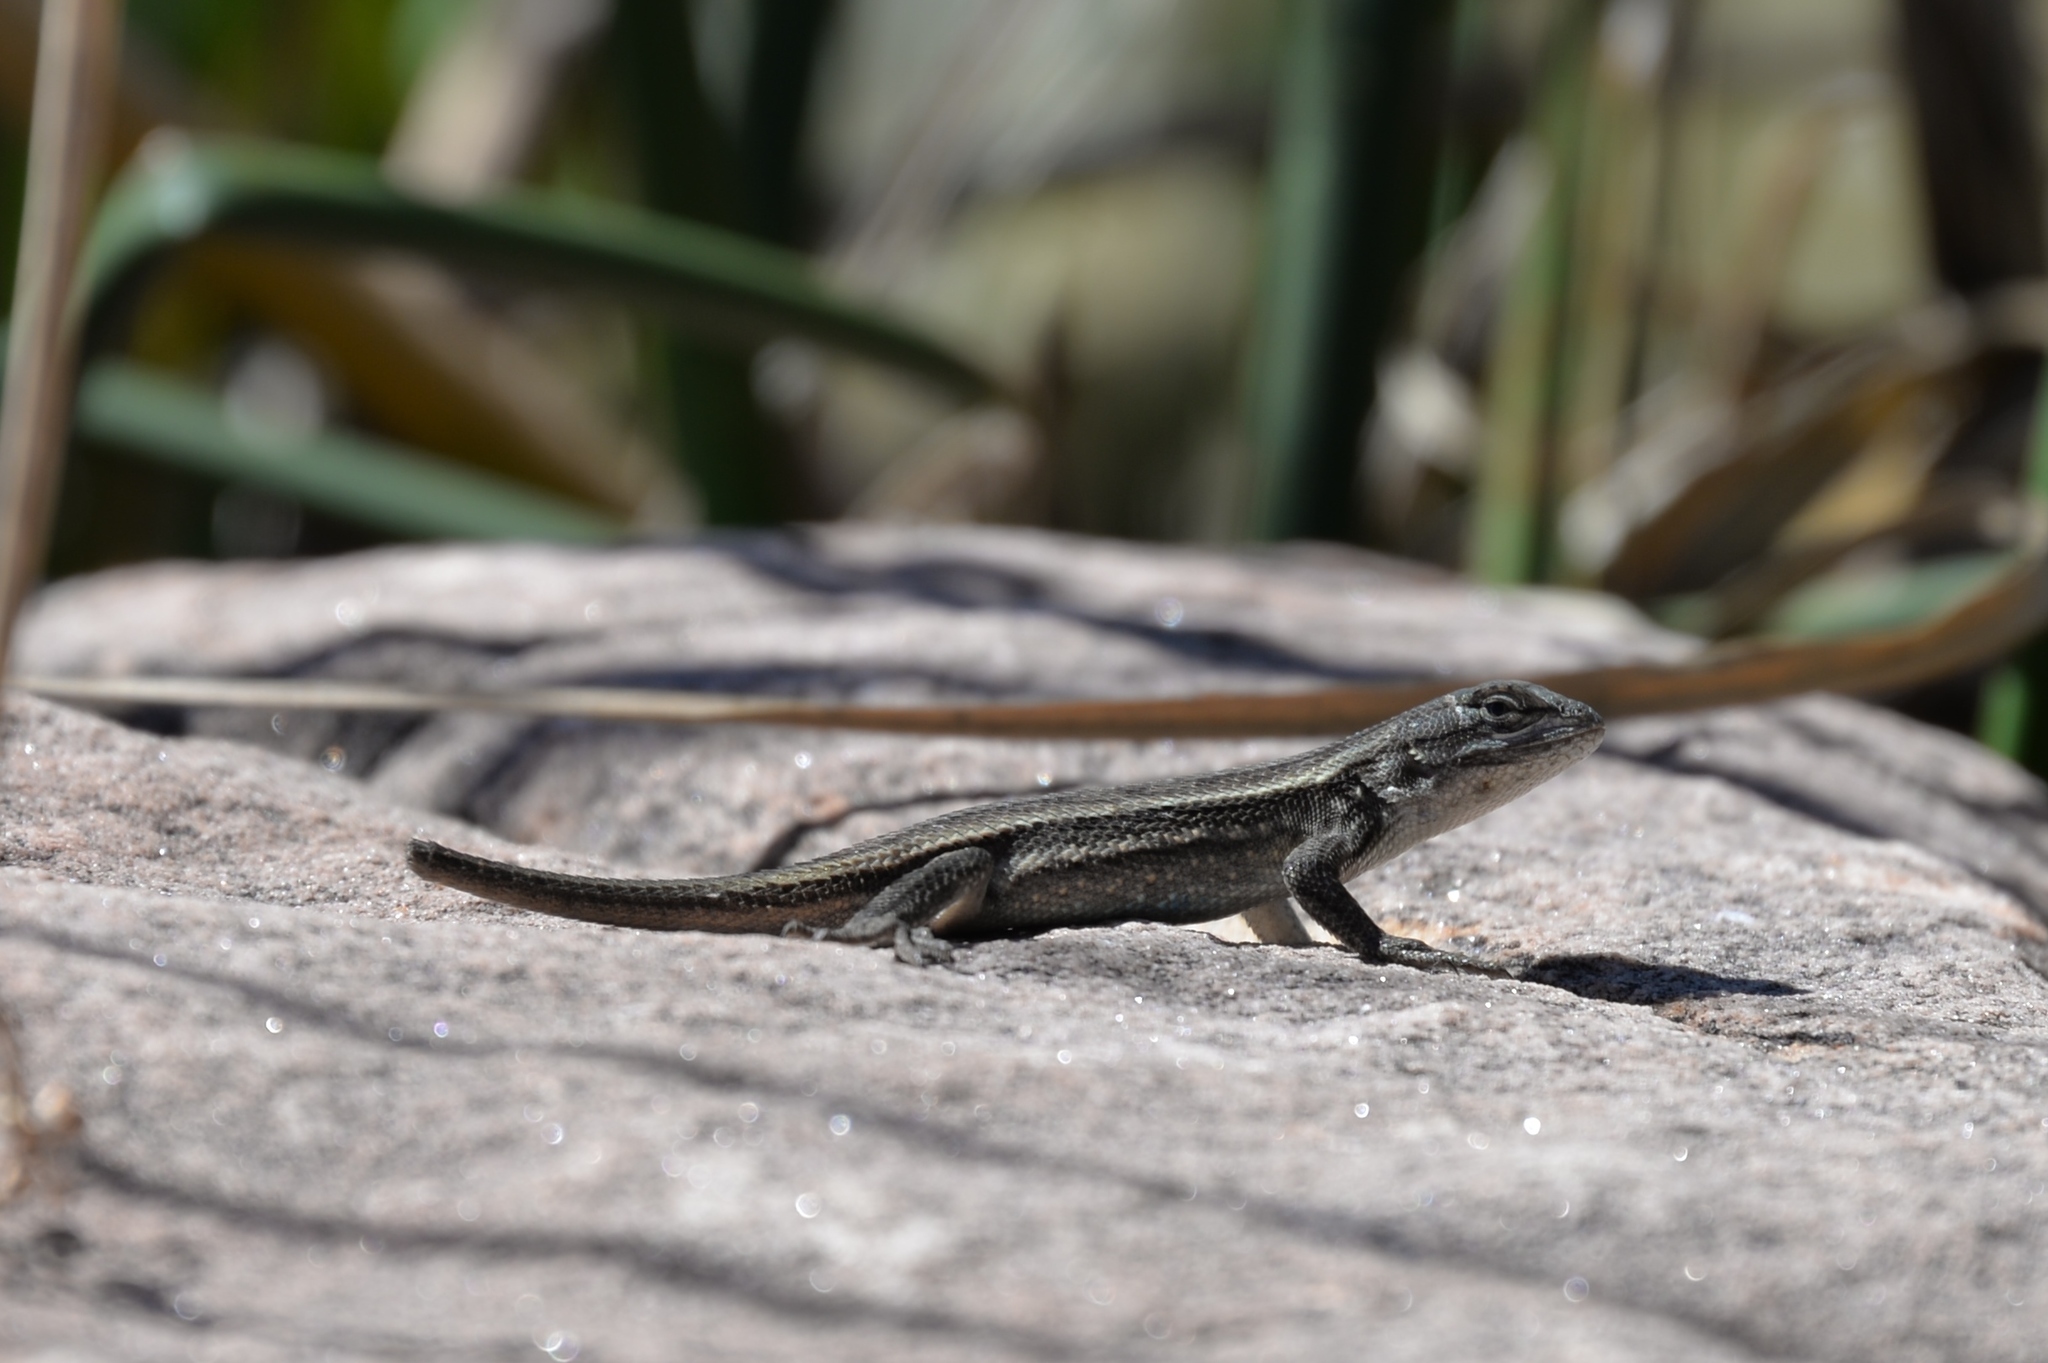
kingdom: Animalia
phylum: Chordata
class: Squamata
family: Phrynosomatidae
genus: Sceloporus
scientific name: Sceloporus consobrinus
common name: Southern prairie lizard
